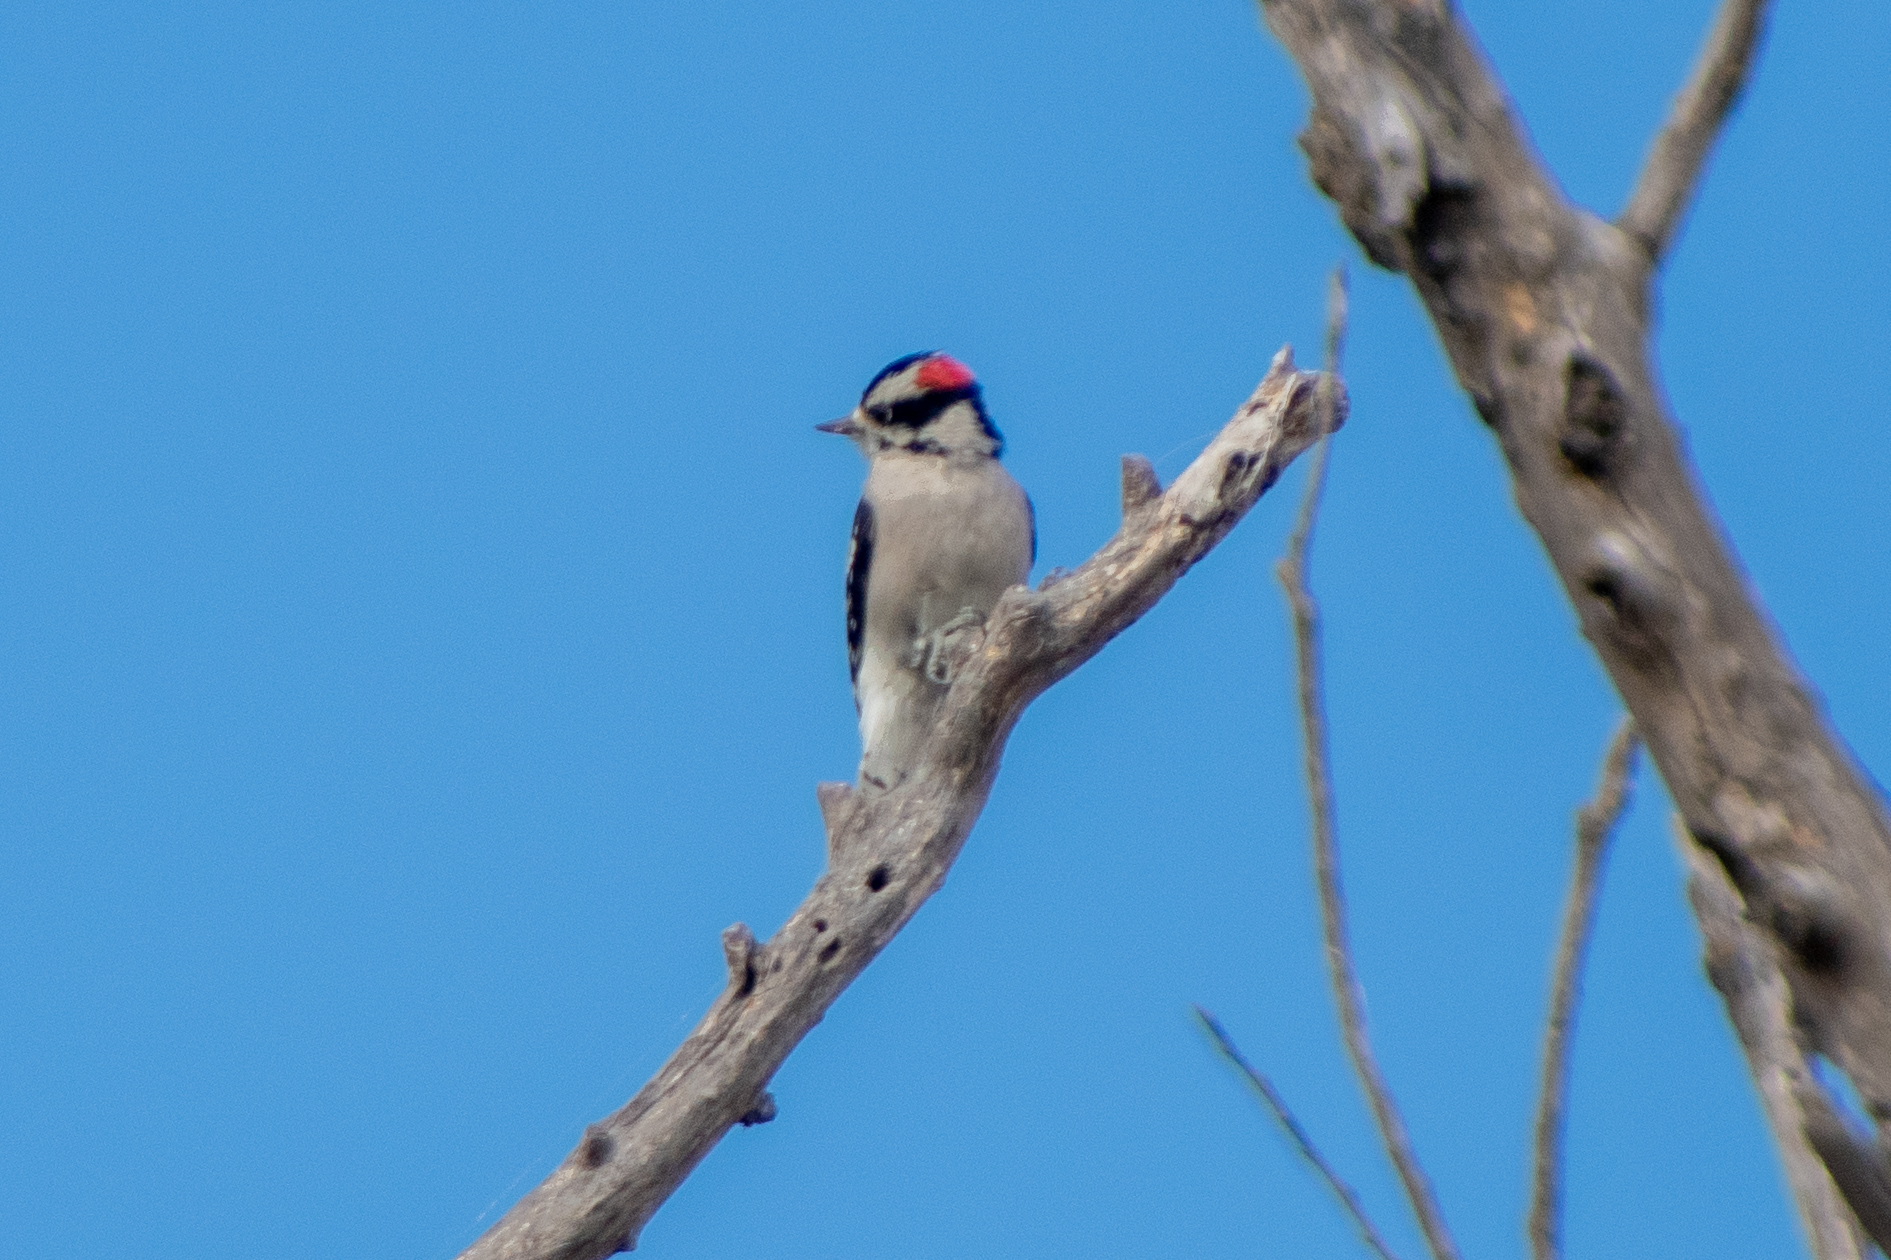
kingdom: Animalia
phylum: Chordata
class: Aves
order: Piciformes
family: Picidae
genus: Dryobates
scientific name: Dryobates pubescens
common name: Downy woodpecker
